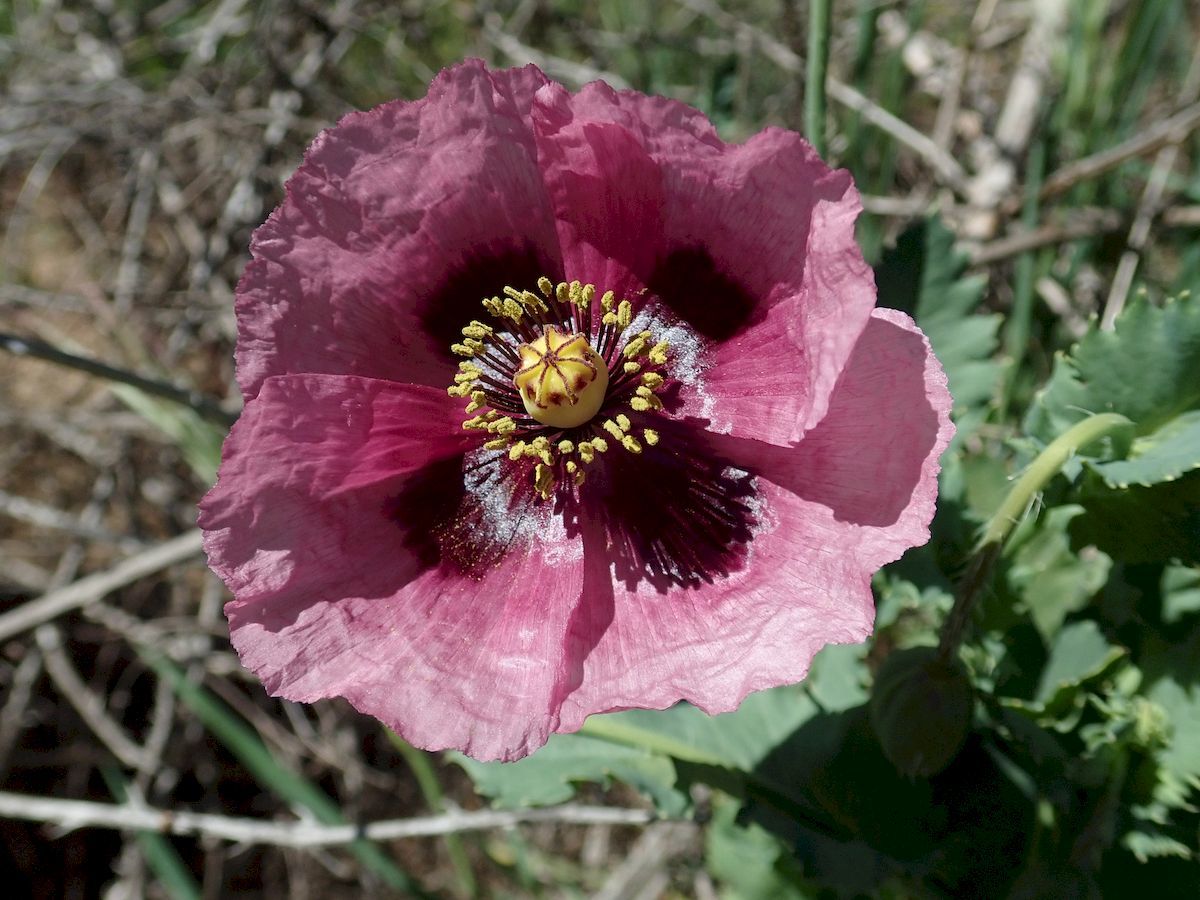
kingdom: Plantae
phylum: Tracheophyta
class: Magnoliopsida
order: Ranunculales
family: Papaveraceae
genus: Papaver
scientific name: Papaver somniferum
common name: Opium poppy
